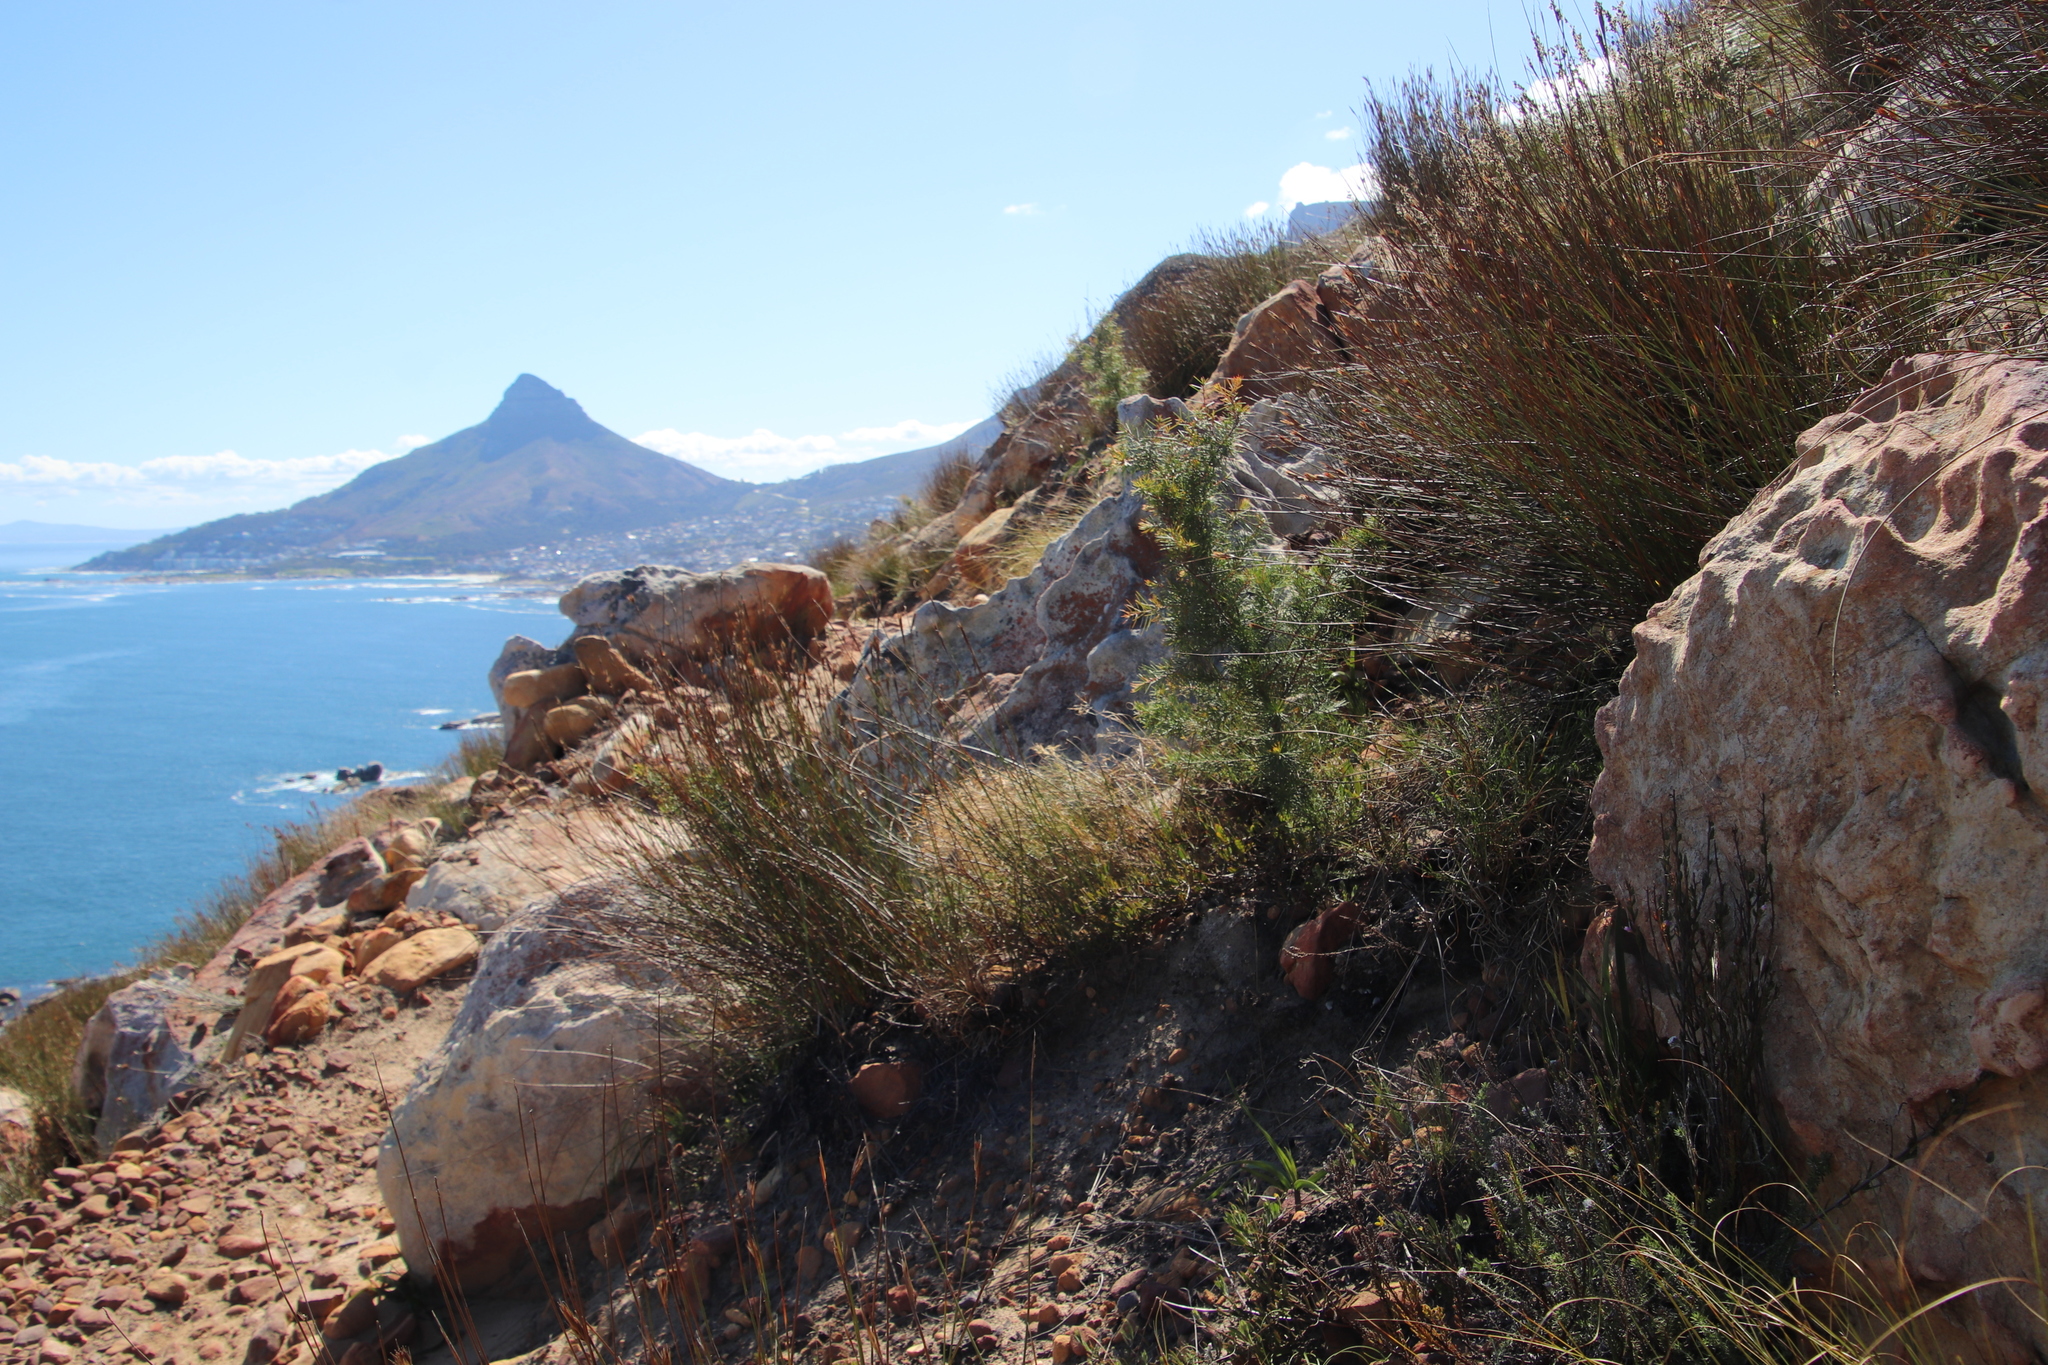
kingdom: Plantae
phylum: Tracheophyta
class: Magnoliopsida
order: Proteales
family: Proteaceae
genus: Hakea
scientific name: Hakea sericea
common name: Needle bush
